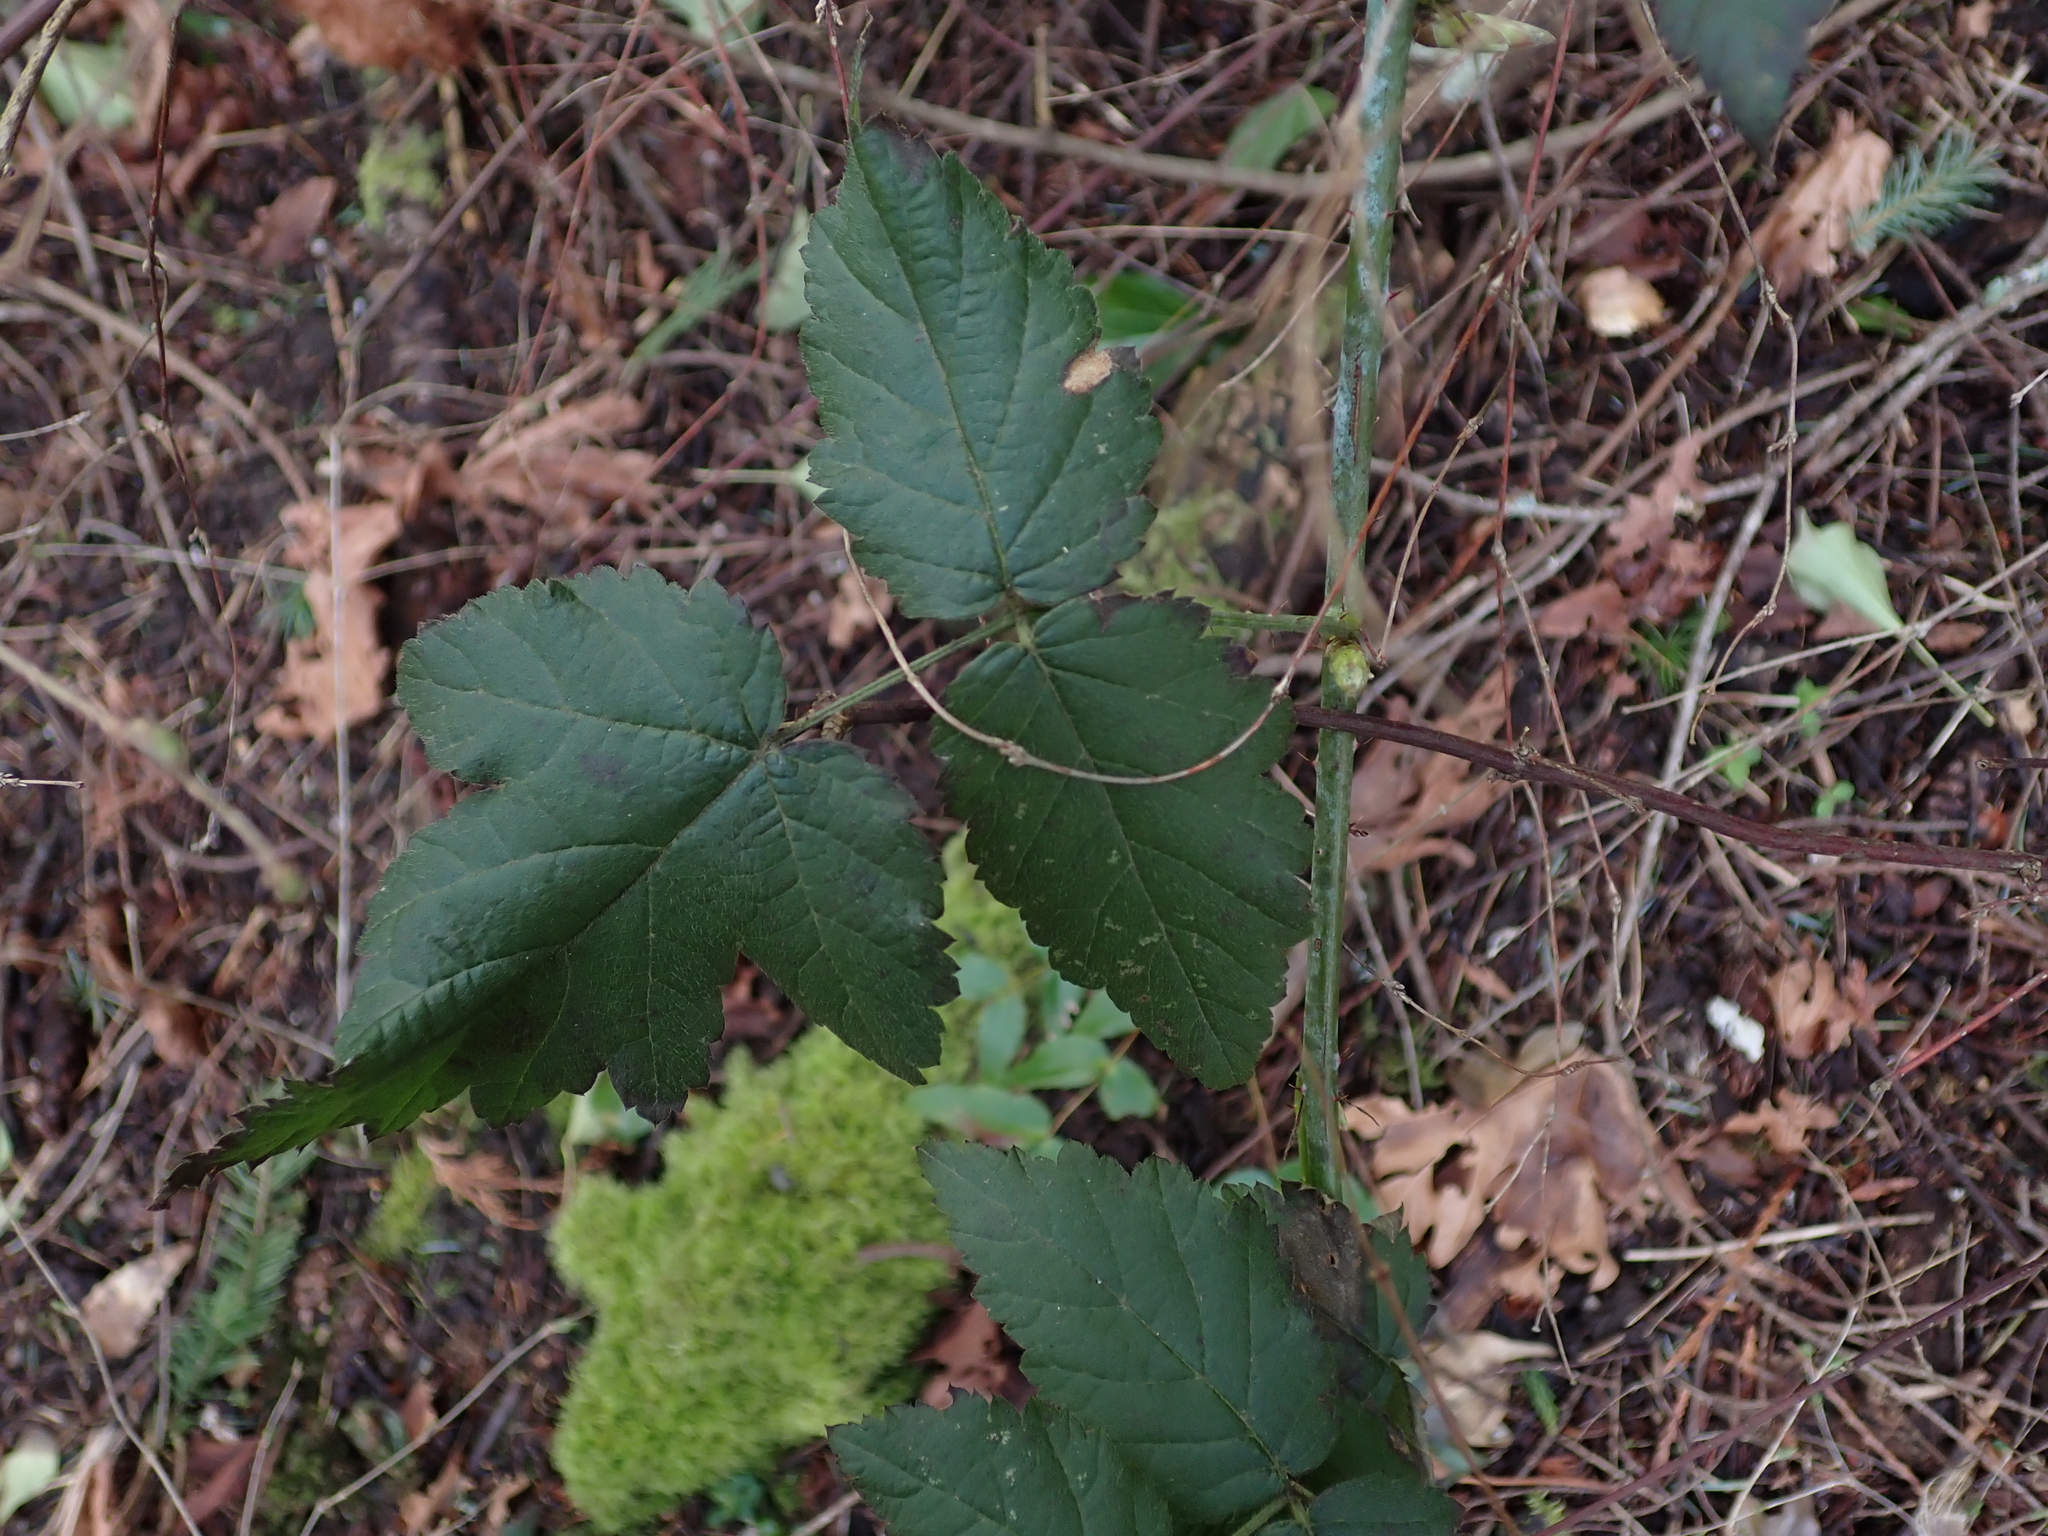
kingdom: Plantae
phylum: Tracheophyta
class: Magnoliopsida
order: Rosales
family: Rosaceae
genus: Rubus
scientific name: Rubus ursinus
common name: Pacific blackberry
